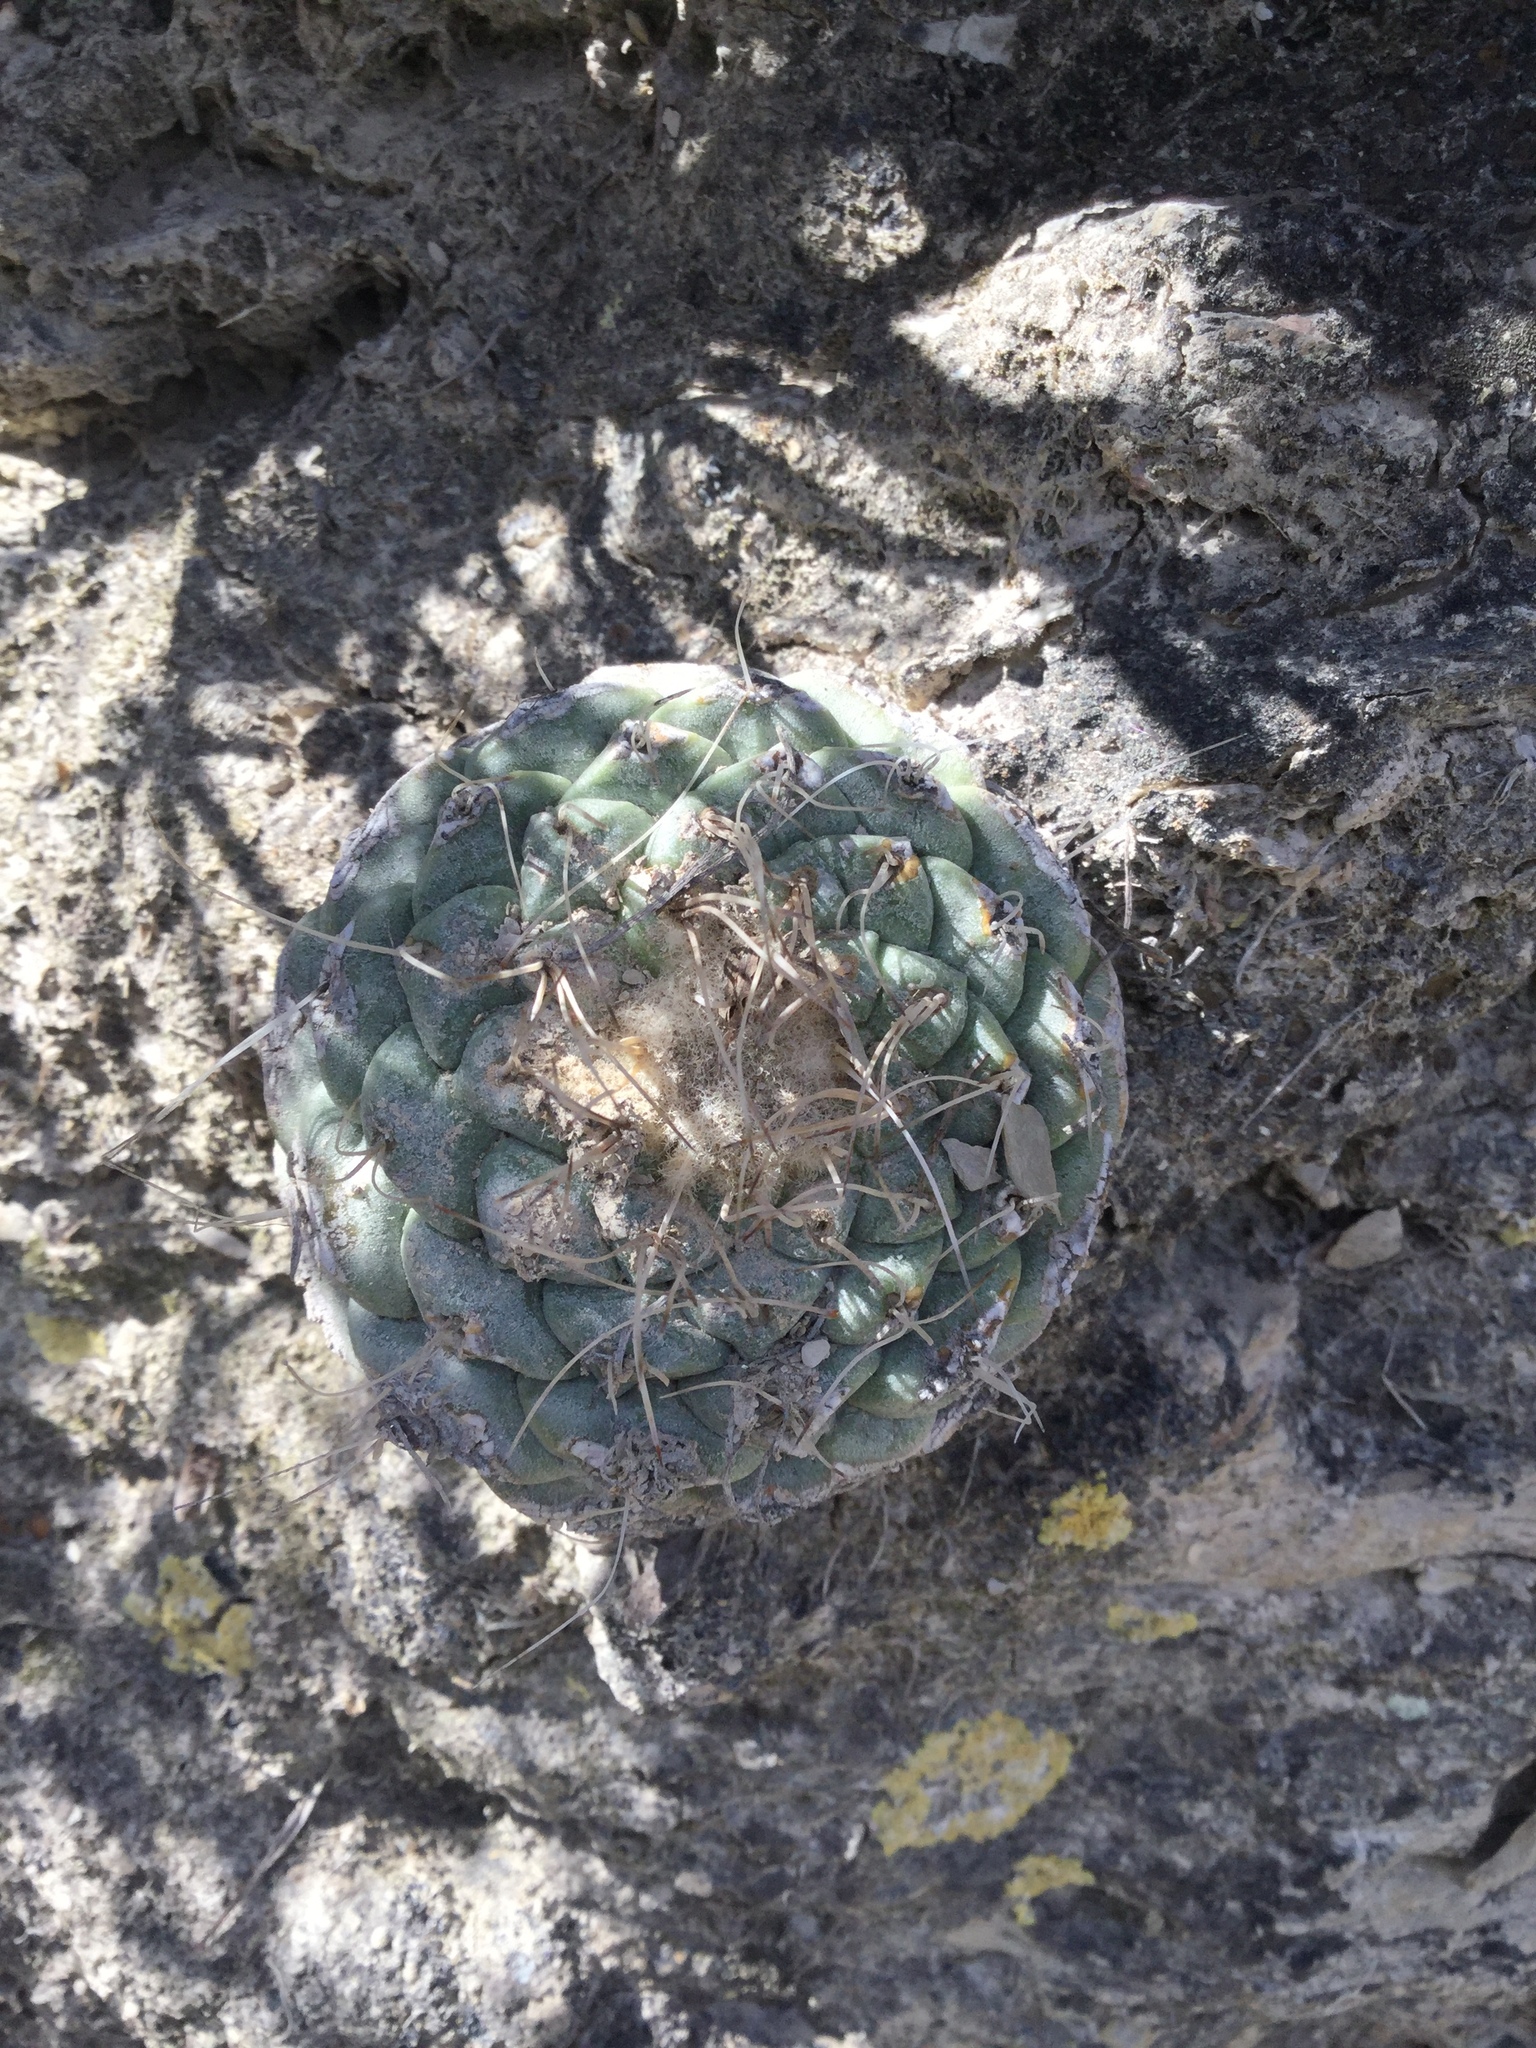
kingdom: Plantae
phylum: Tracheophyta
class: Magnoliopsida
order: Caryophyllales
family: Cactaceae
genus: Strombocactus
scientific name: Strombocactus disciformis
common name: Top cactus
